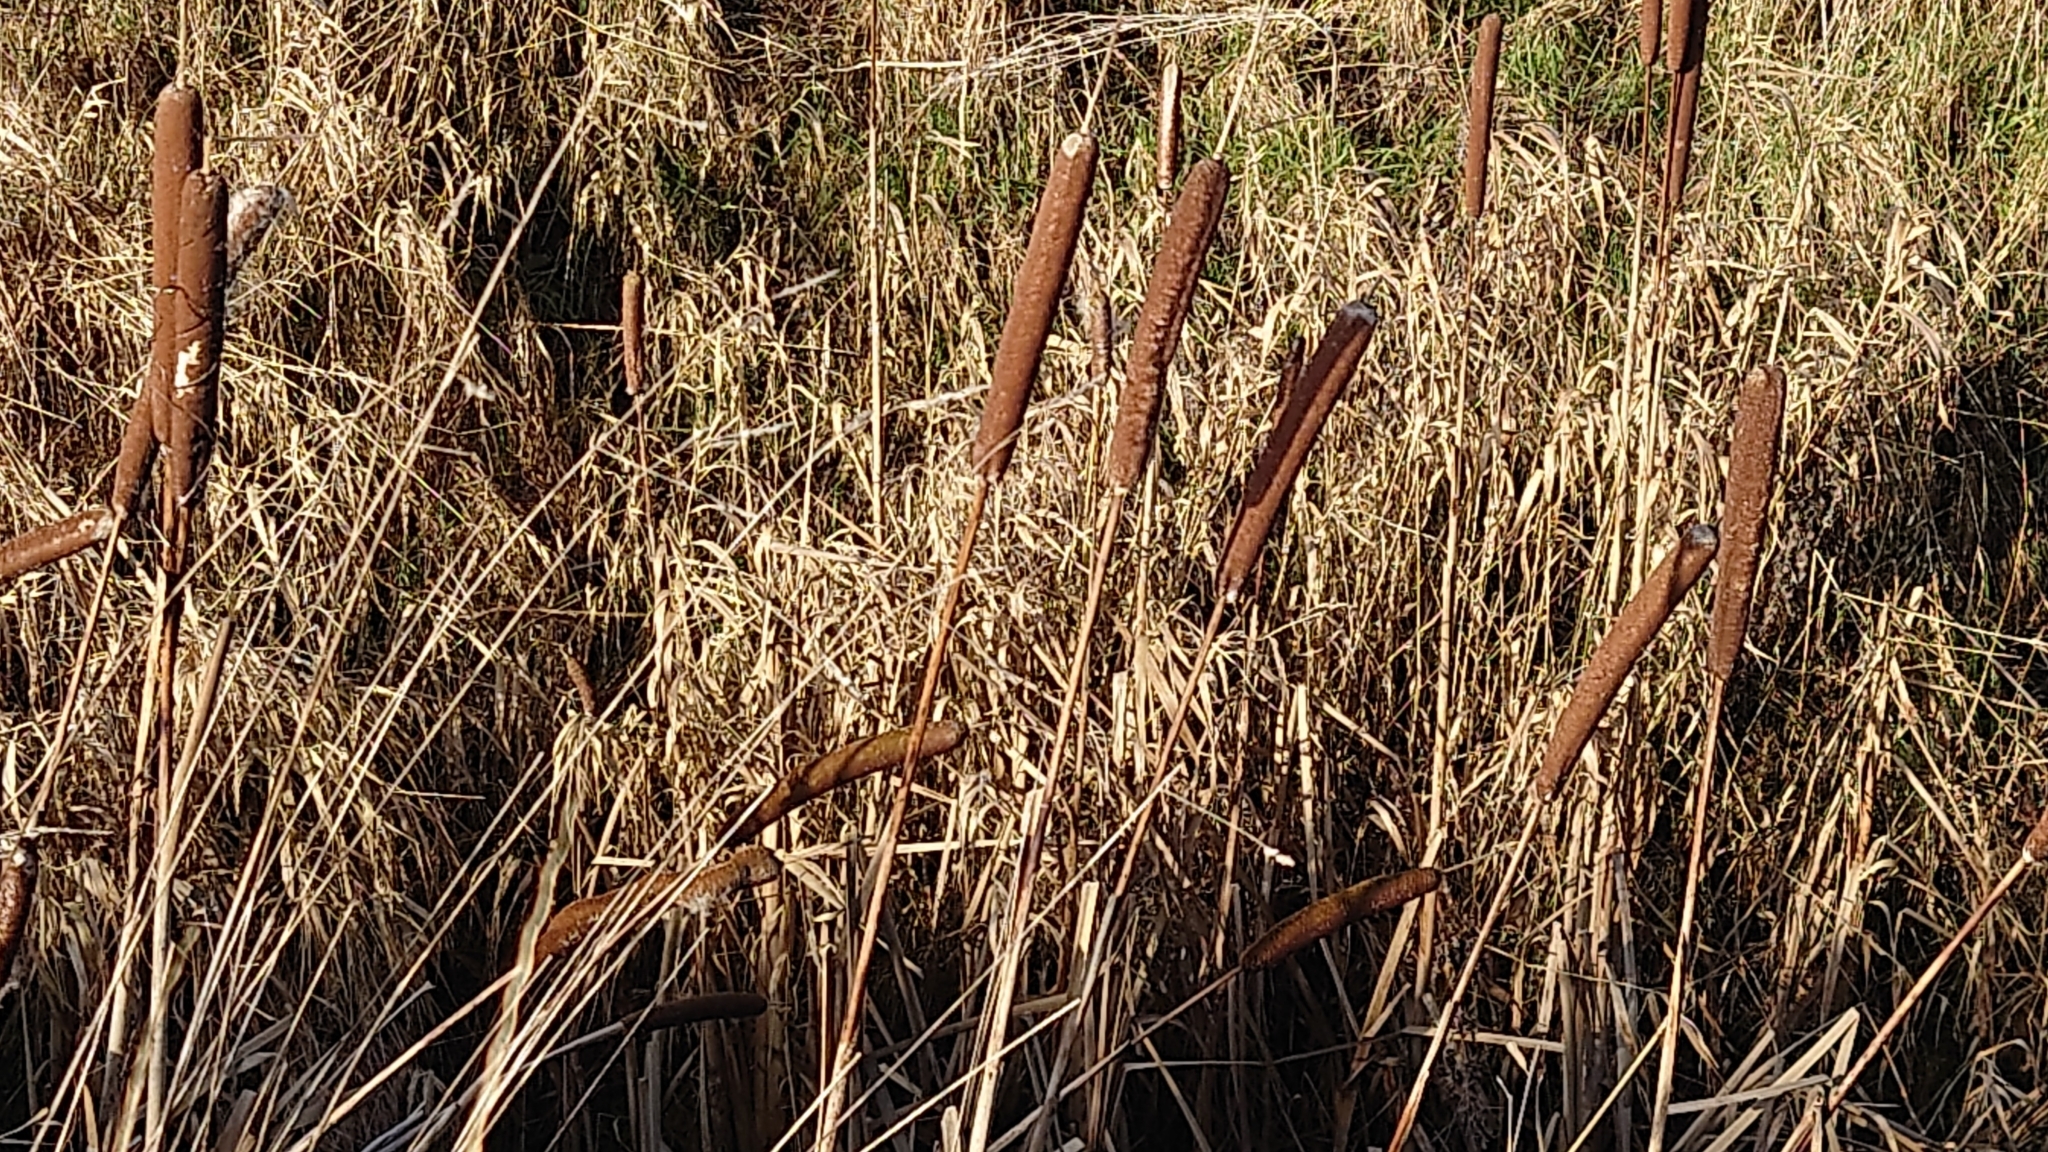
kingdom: Plantae
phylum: Tracheophyta
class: Liliopsida
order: Poales
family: Typhaceae
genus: Typha
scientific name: Typha latifolia
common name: Broadleaf cattail
